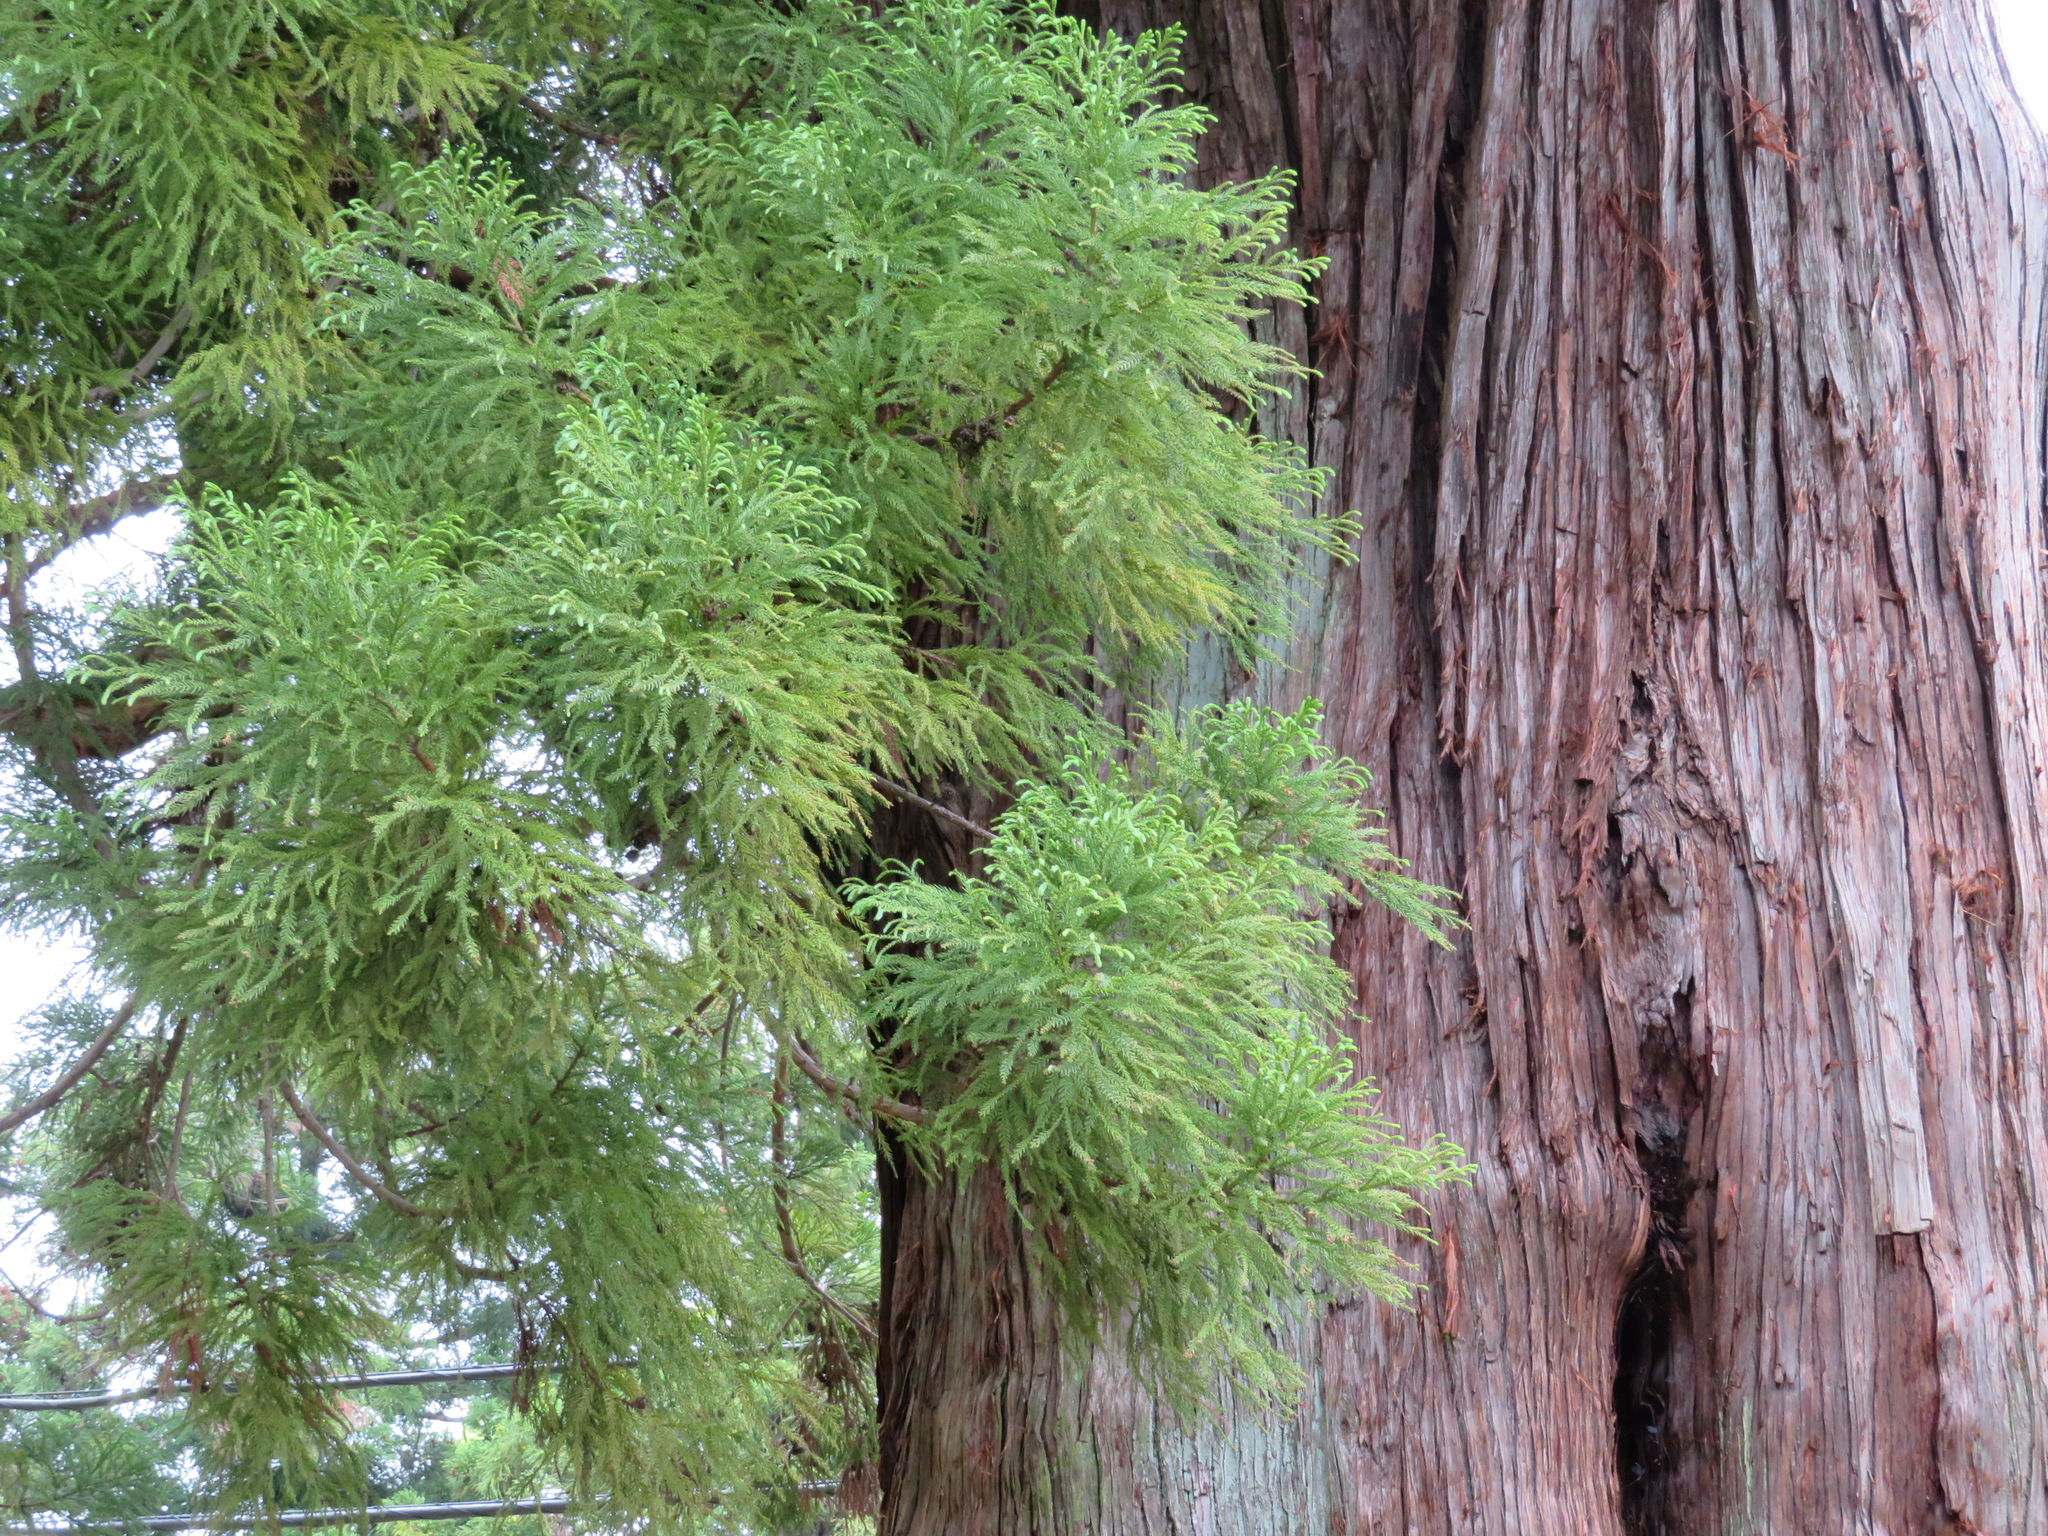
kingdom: Plantae
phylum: Tracheophyta
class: Pinopsida
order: Pinales
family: Cupressaceae
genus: Cryptomeria
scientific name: Cryptomeria japonica
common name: Japanese cedar
